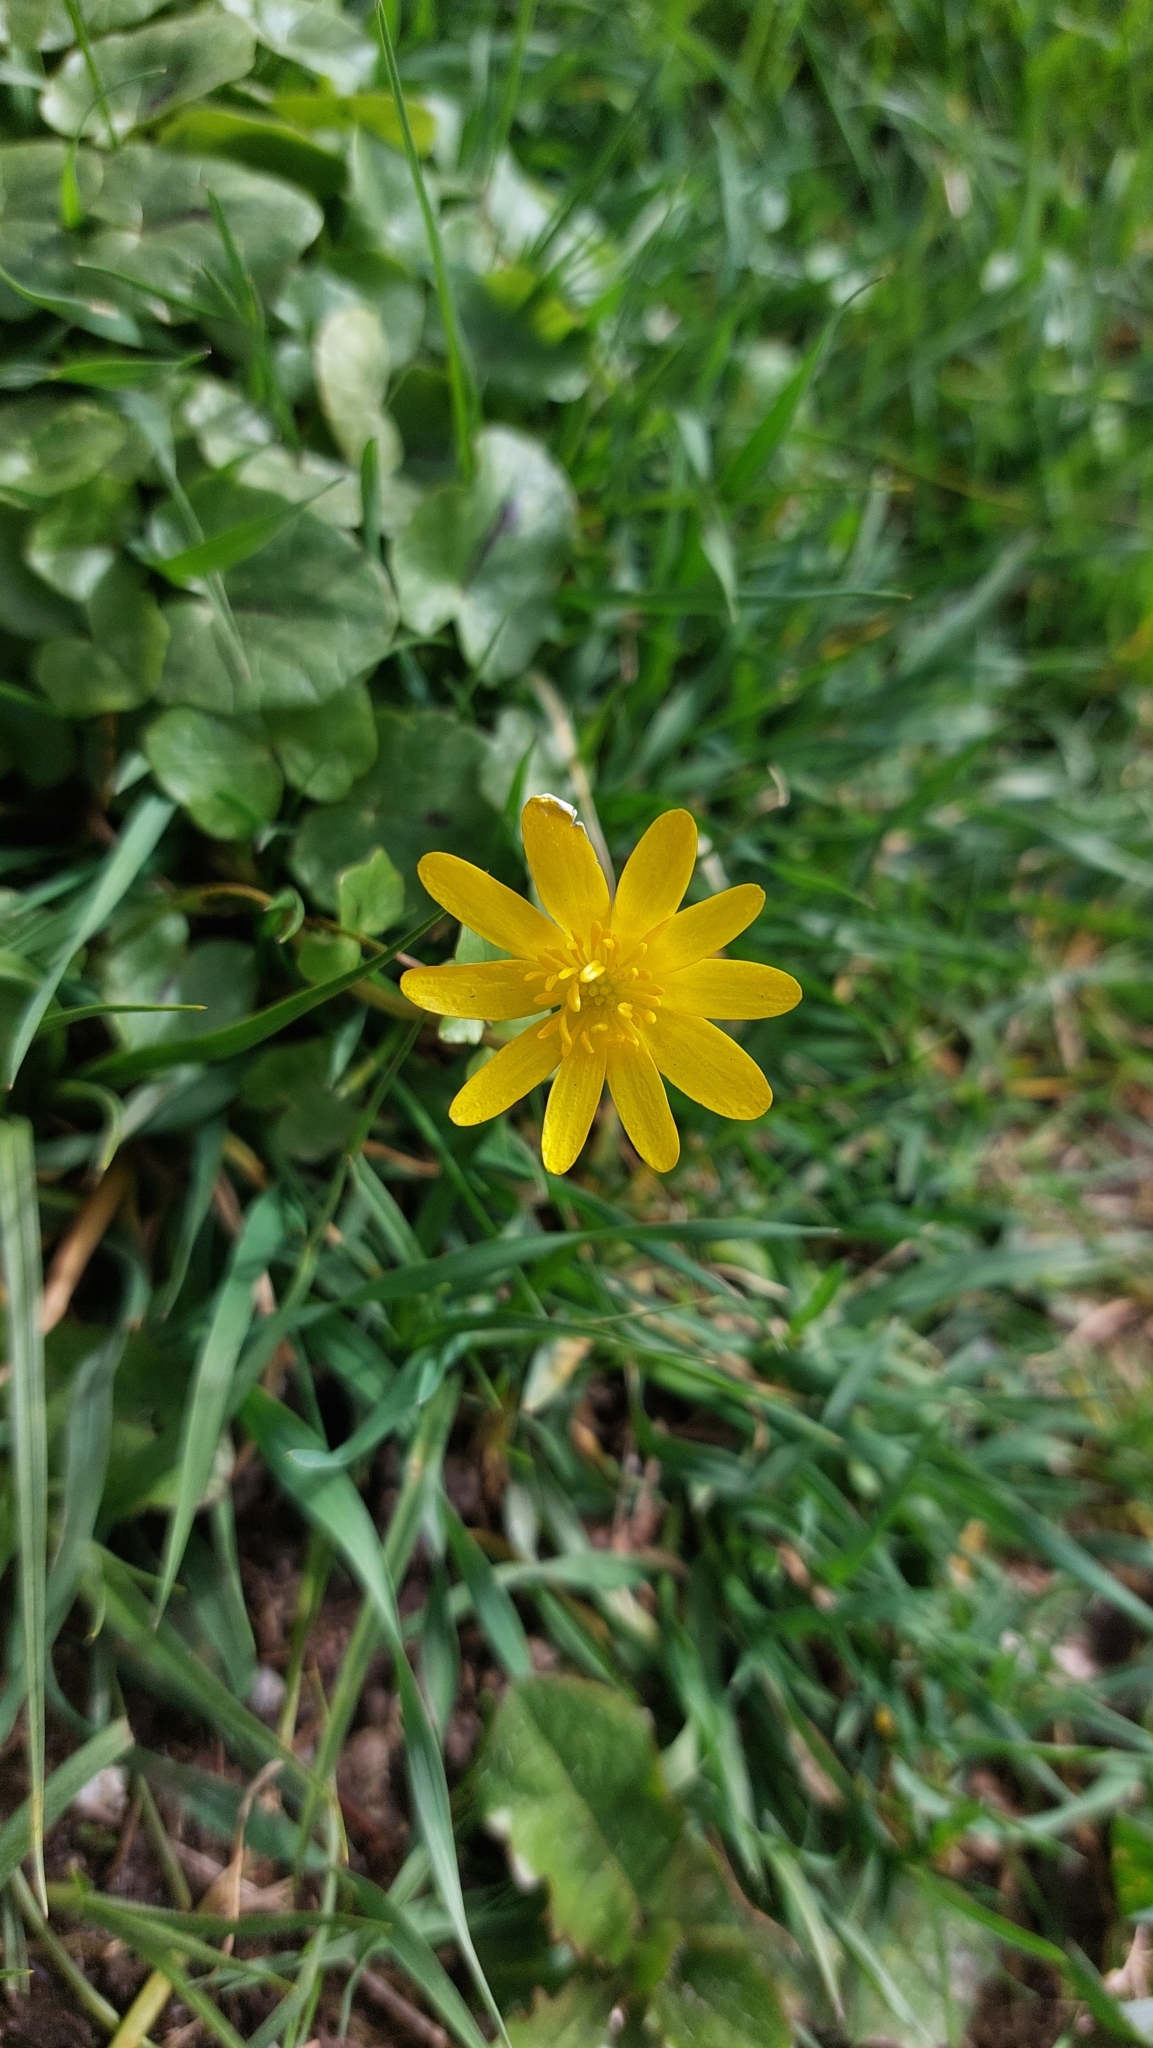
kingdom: Plantae
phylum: Tracheophyta
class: Magnoliopsida
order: Ranunculales
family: Ranunculaceae
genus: Ficaria
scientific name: Ficaria verna
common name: Lesser celandine
